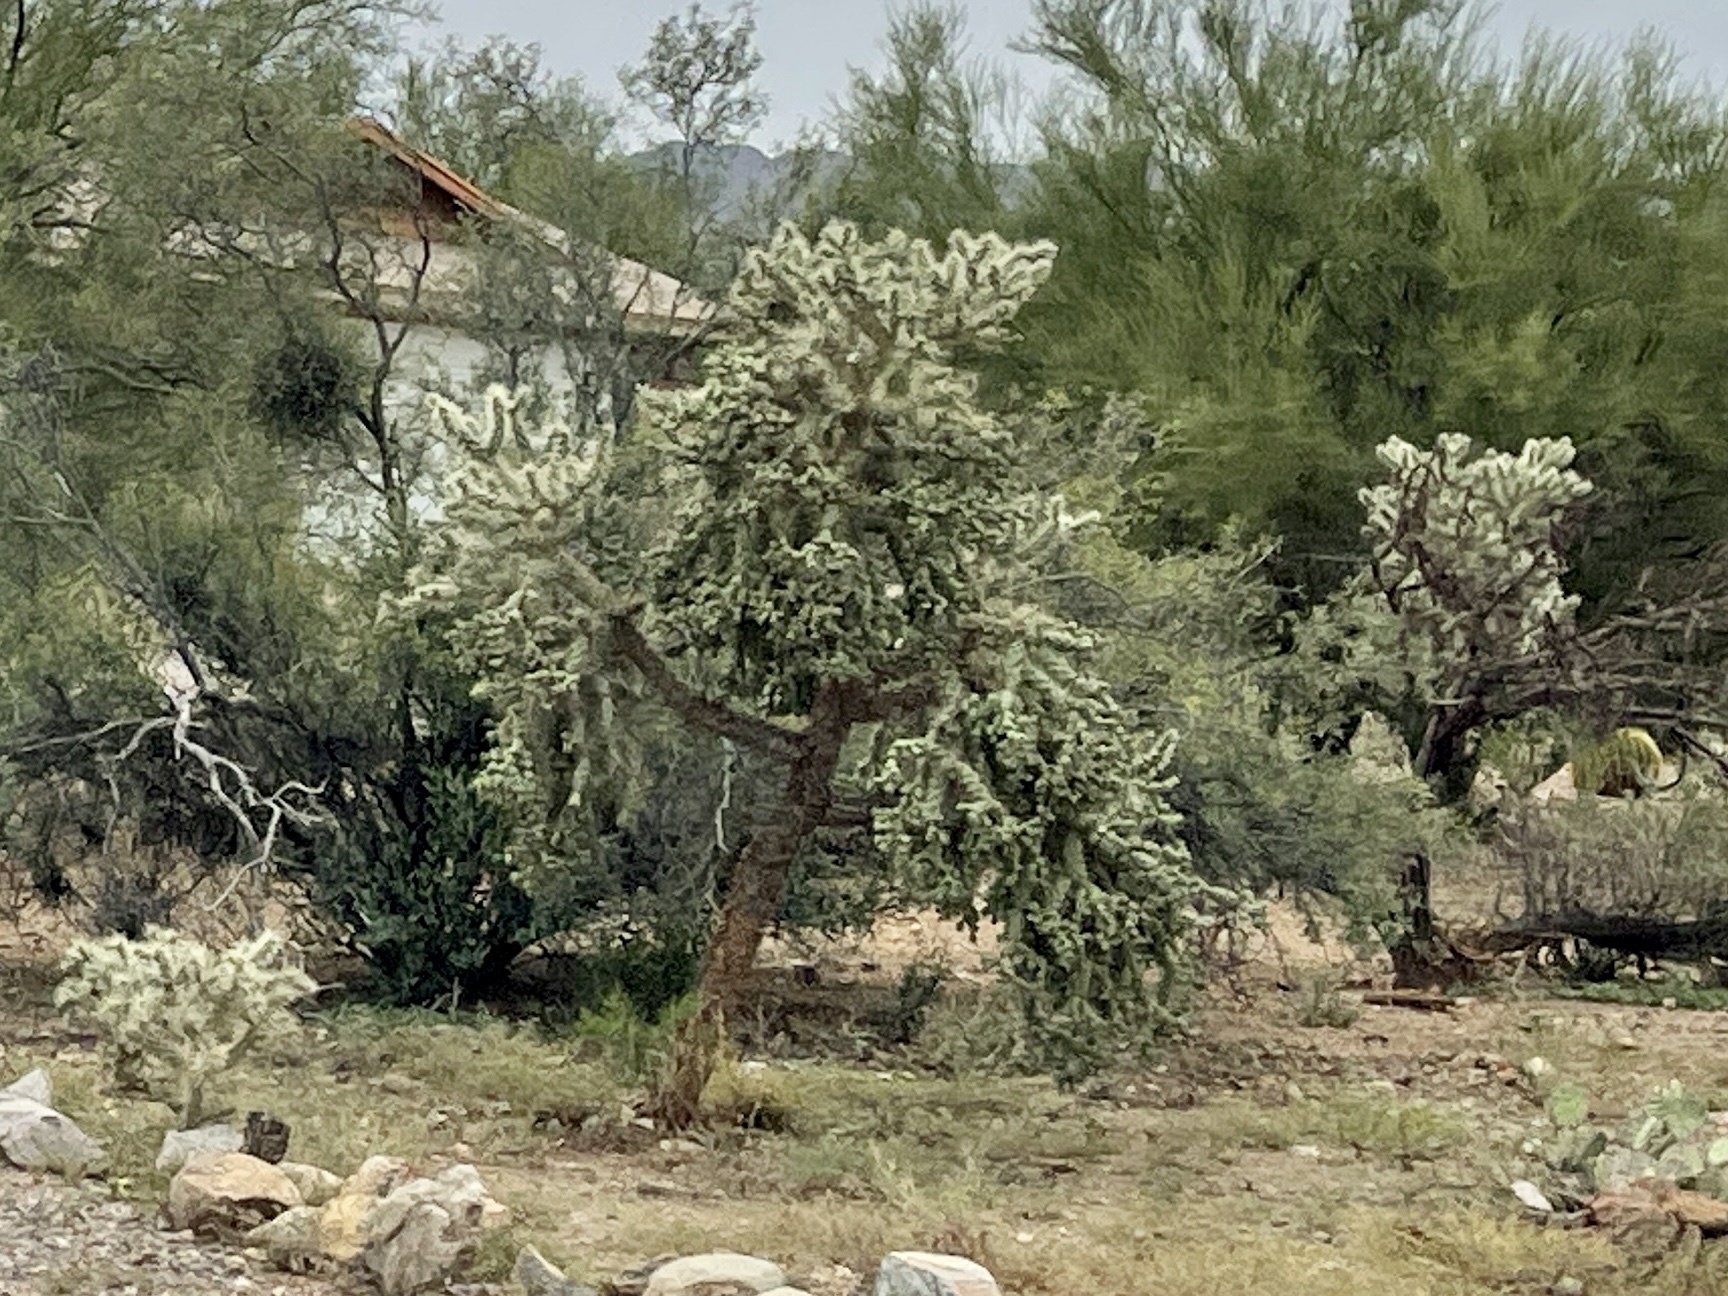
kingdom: Plantae
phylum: Tracheophyta
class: Magnoliopsida
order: Caryophyllales
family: Cactaceae
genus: Cylindropuntia
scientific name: Cylindropuntia fulgida
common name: Jumping cholla
